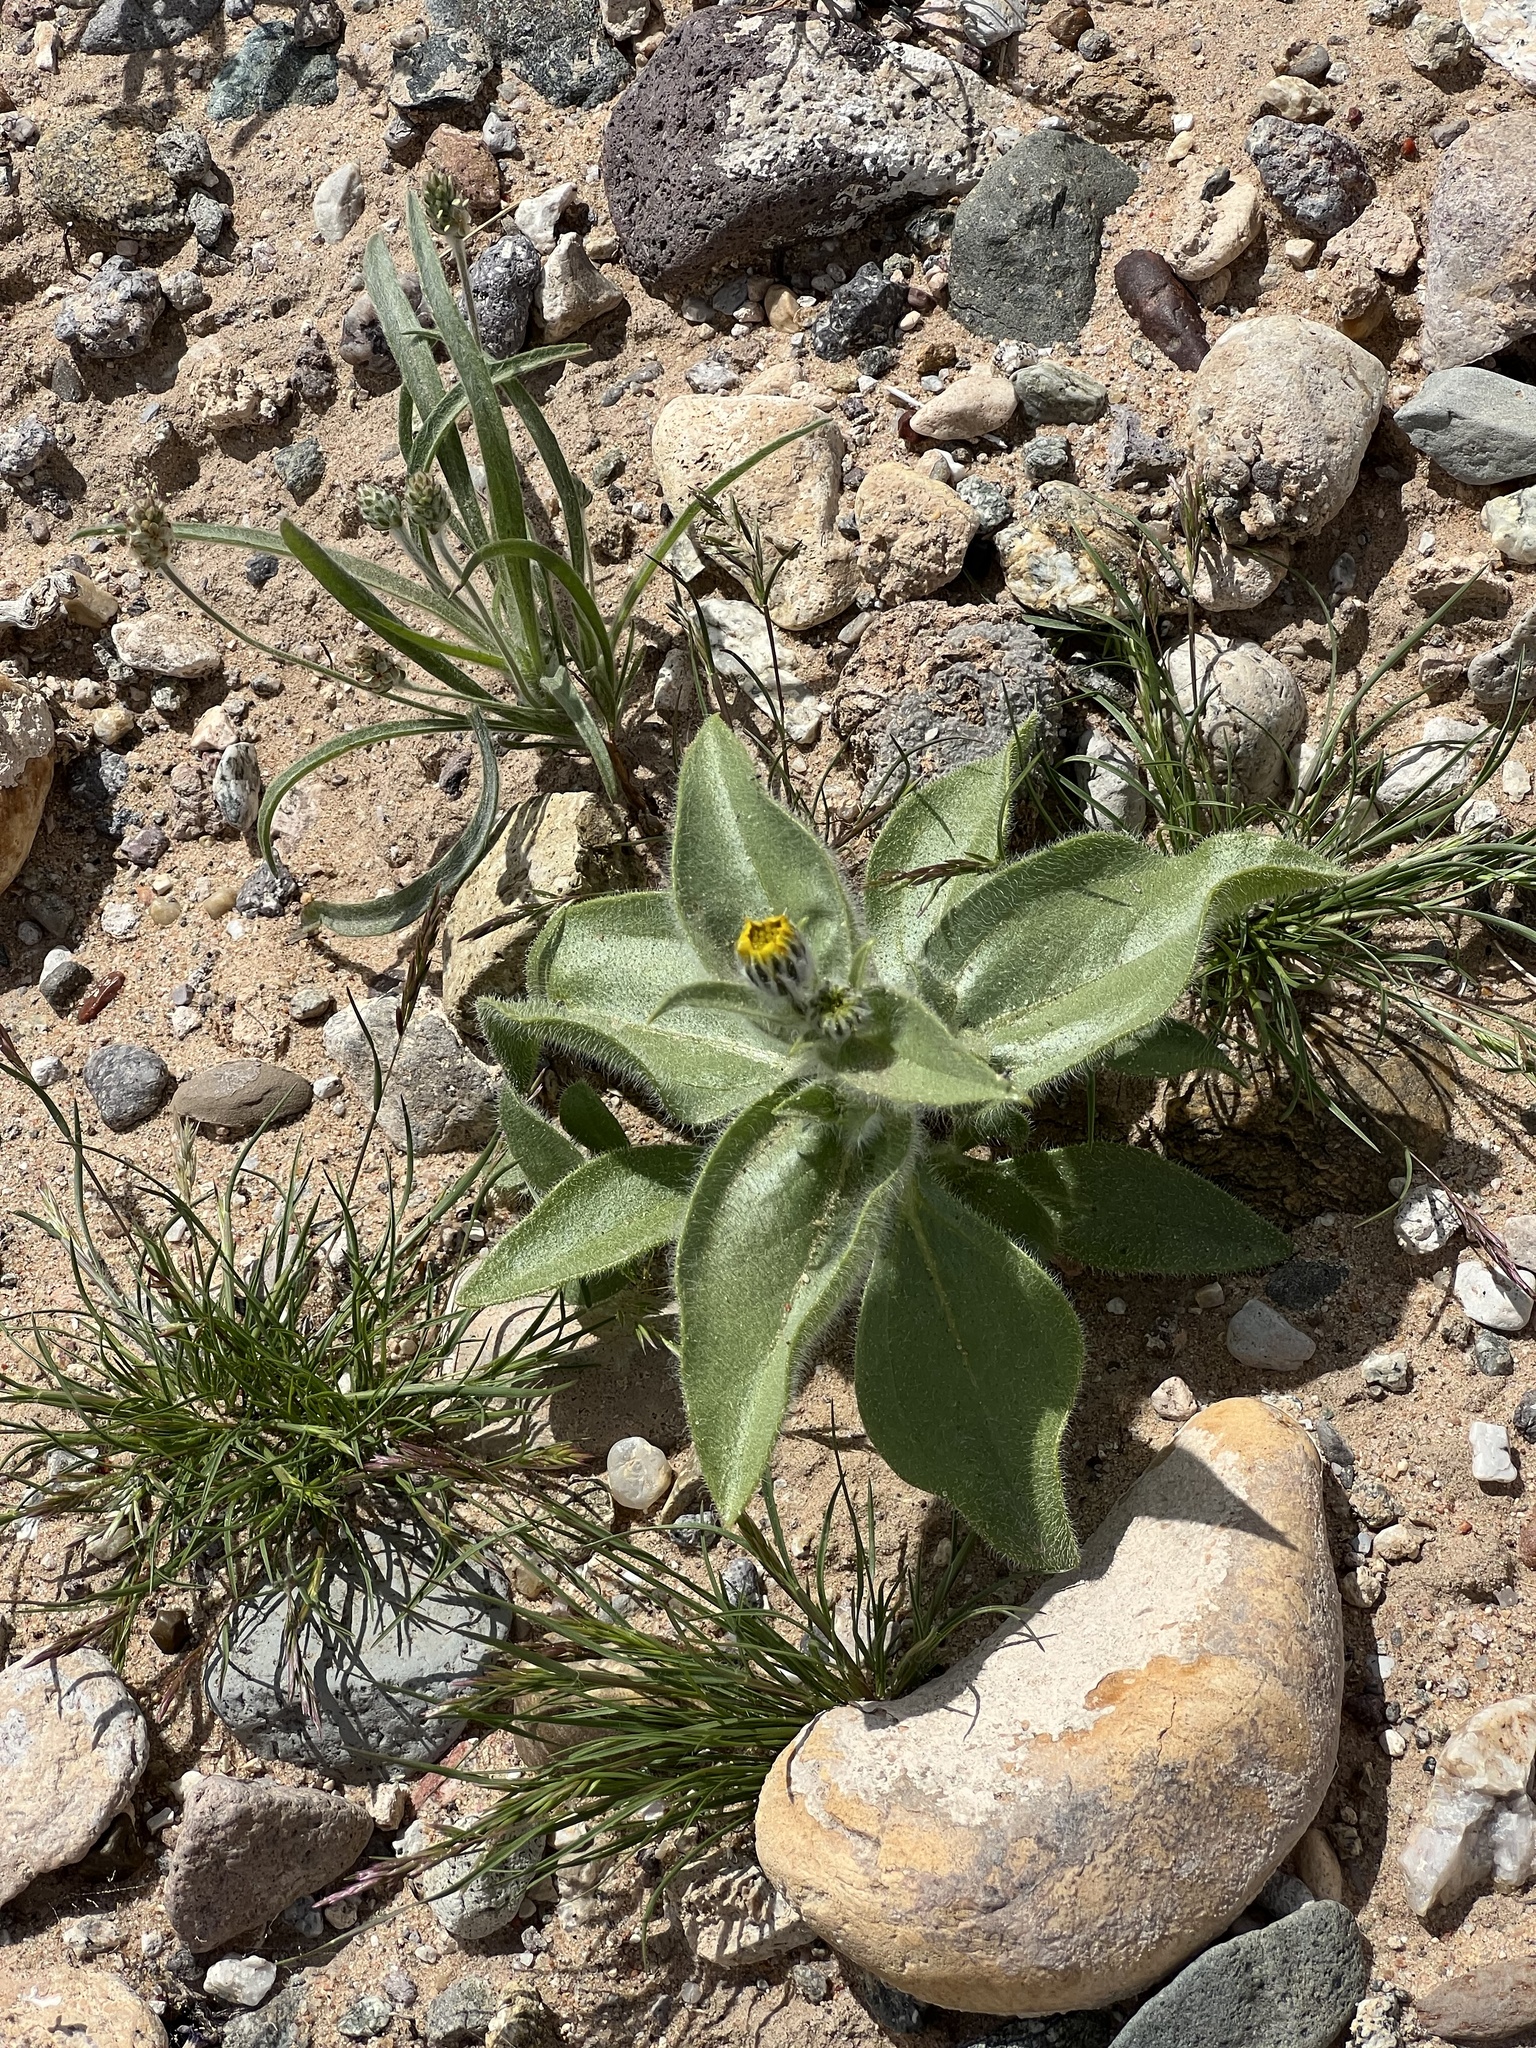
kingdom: Plantae
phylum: Tracheophyta
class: Magnoliopsida
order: Asterales
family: Asteraceae
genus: Geraea
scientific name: Geraea canescens
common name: Desert-gold
